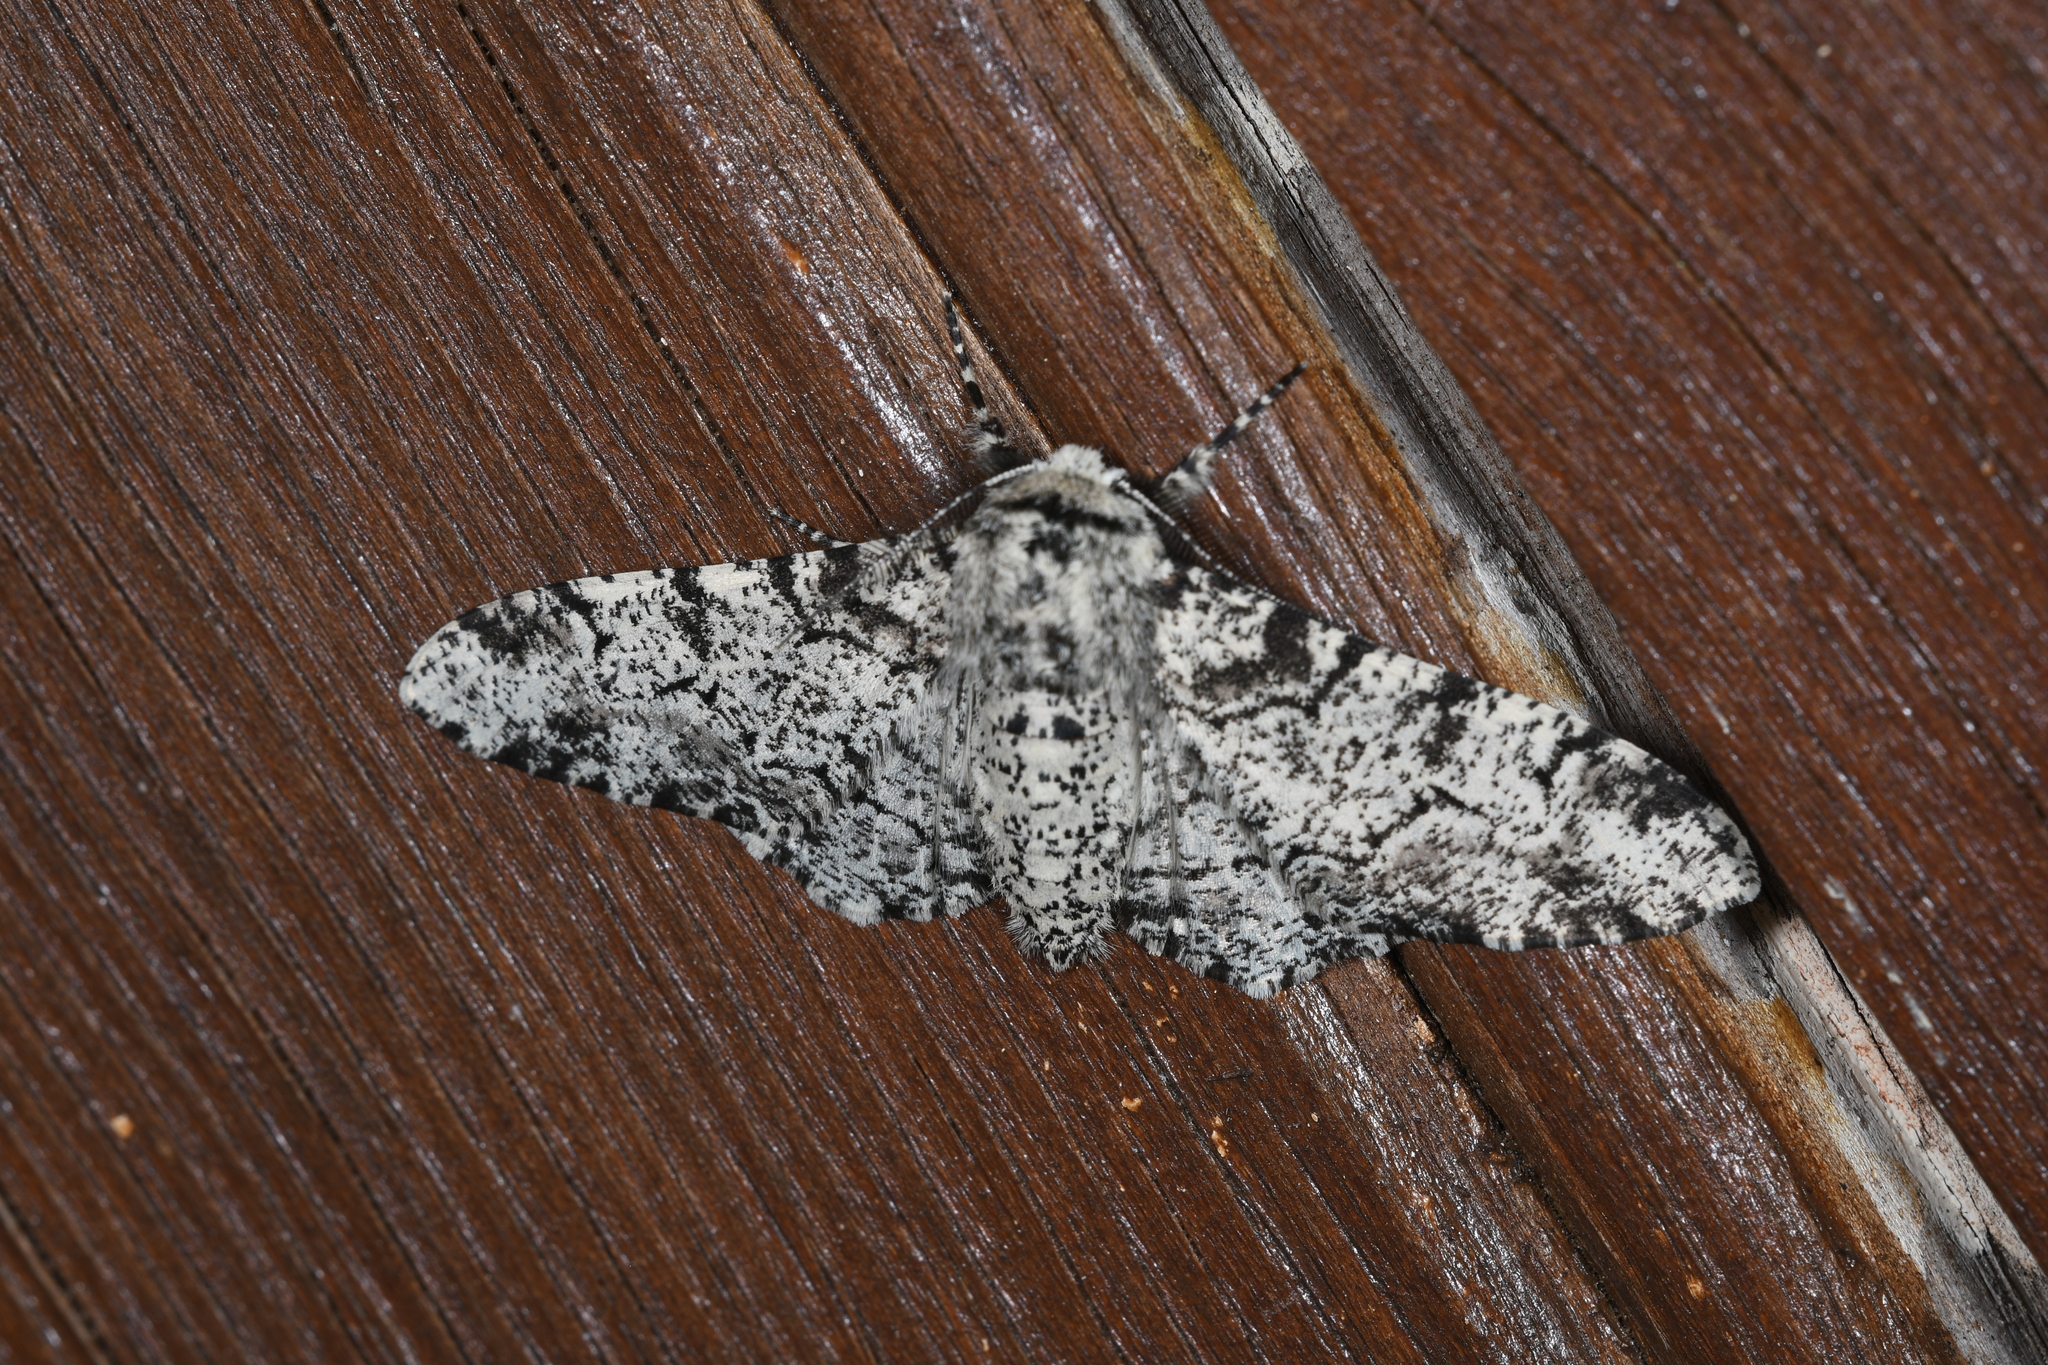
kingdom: Animalia
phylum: Arthropoda
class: Insecta
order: Lepidoptera
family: Geometridae
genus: Biston
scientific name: Biston betularia
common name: Peppered moth
